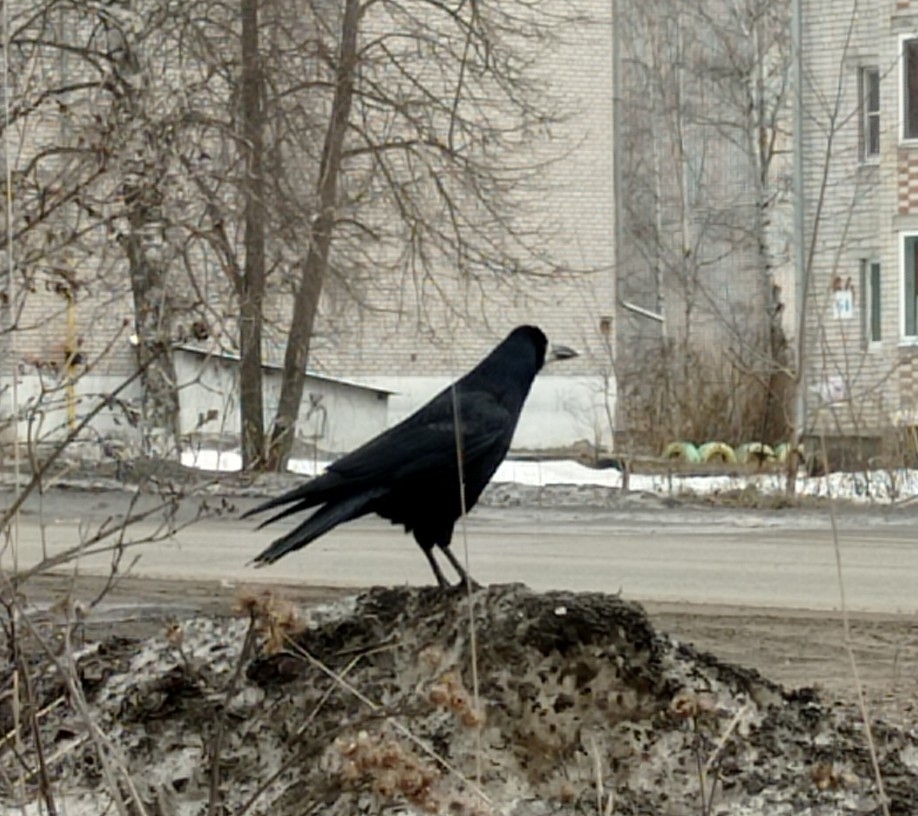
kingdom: Animalia
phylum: Chordata
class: Aves
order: Passeriformes
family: Corvidae
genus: Corvus
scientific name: Corvus frugilegus
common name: Rook
